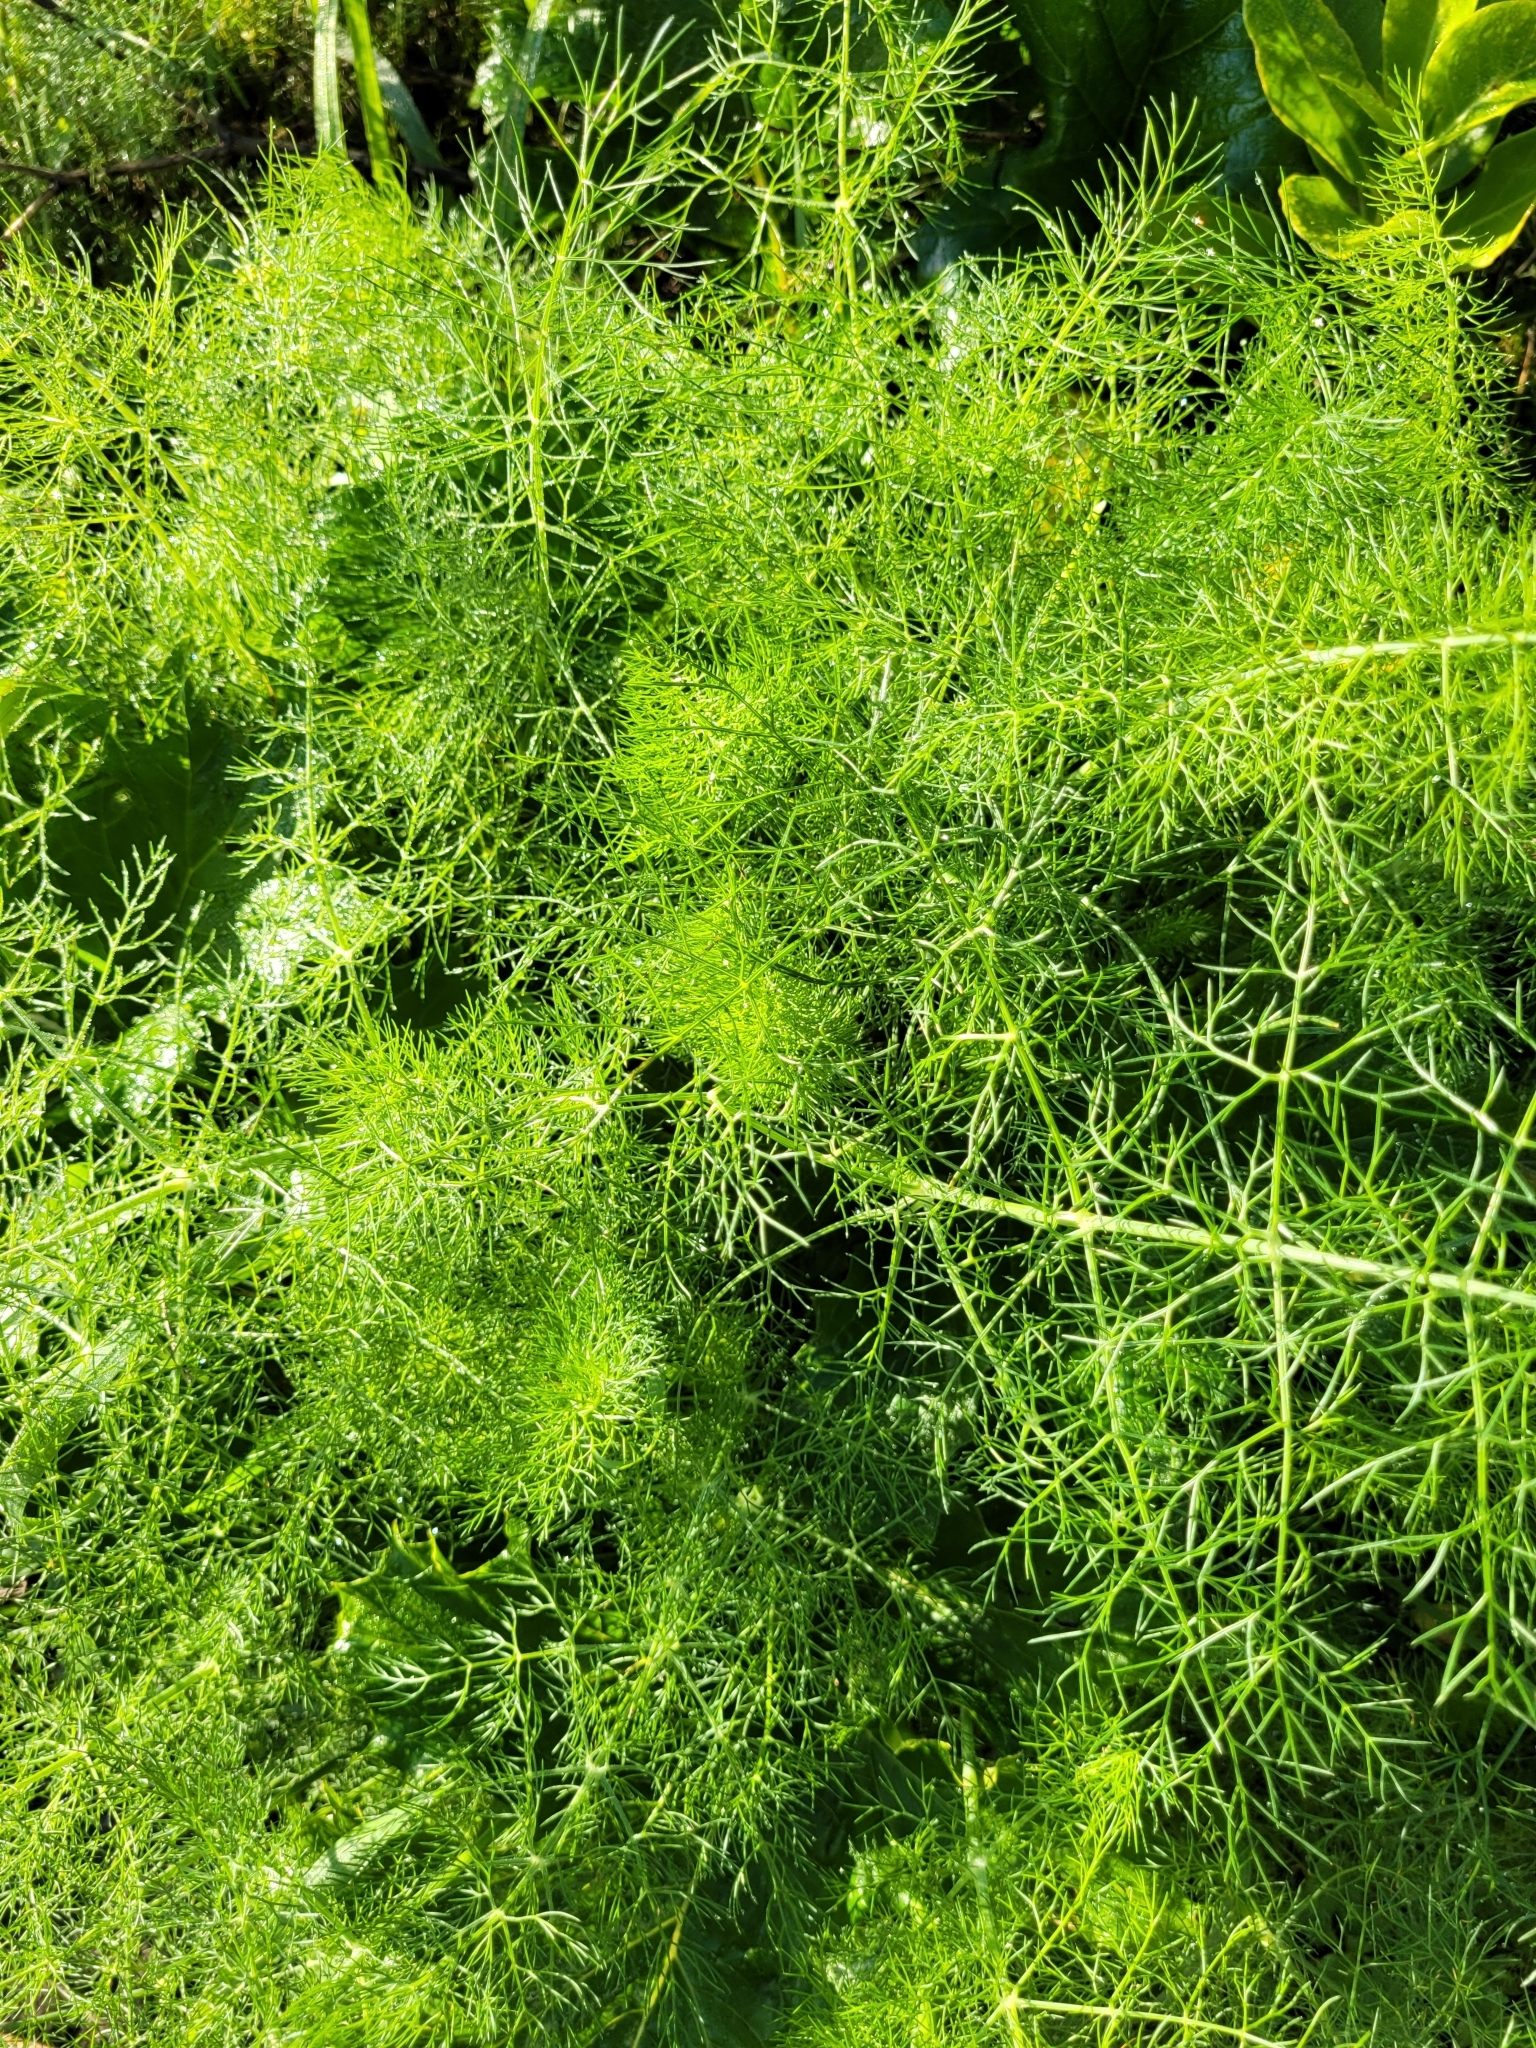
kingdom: Plantae
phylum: Tracheophyta
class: Magnoliopsida
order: Apiales
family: Apiaceae
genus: Foeniculum
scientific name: Foeniculum vulgare
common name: Fennel
